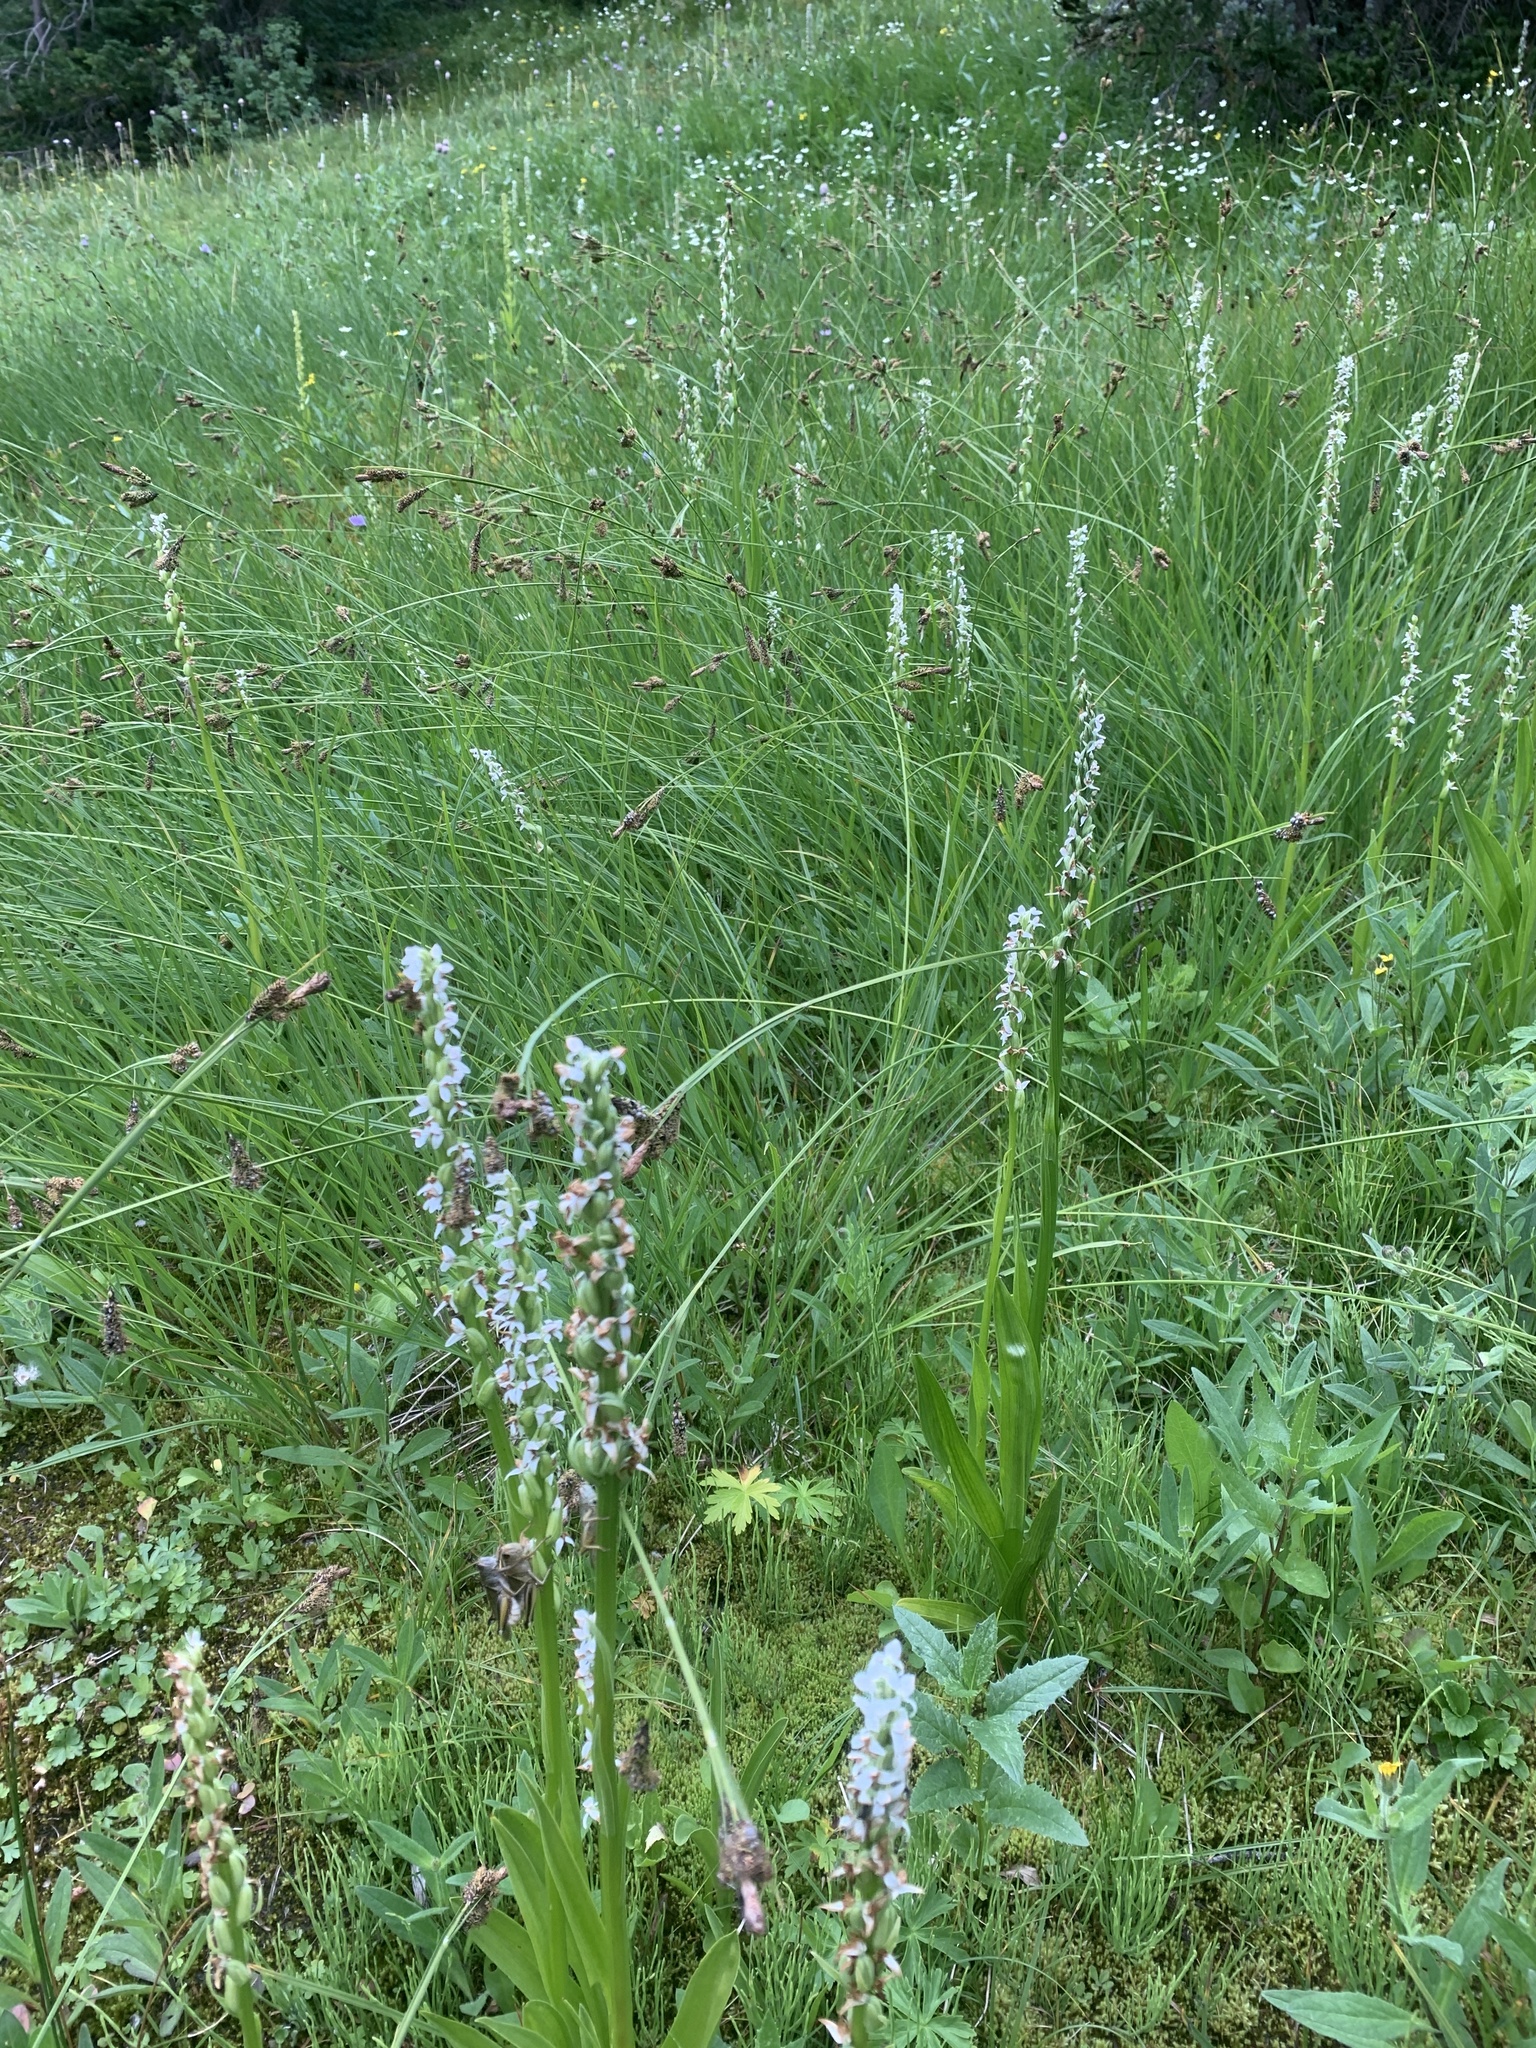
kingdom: Plantae
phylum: Tracheophyta
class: Liliopsida
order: Asparagales
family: Orchidaceae
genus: Platanthera
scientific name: Platanthera dilatata
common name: Bog candles
